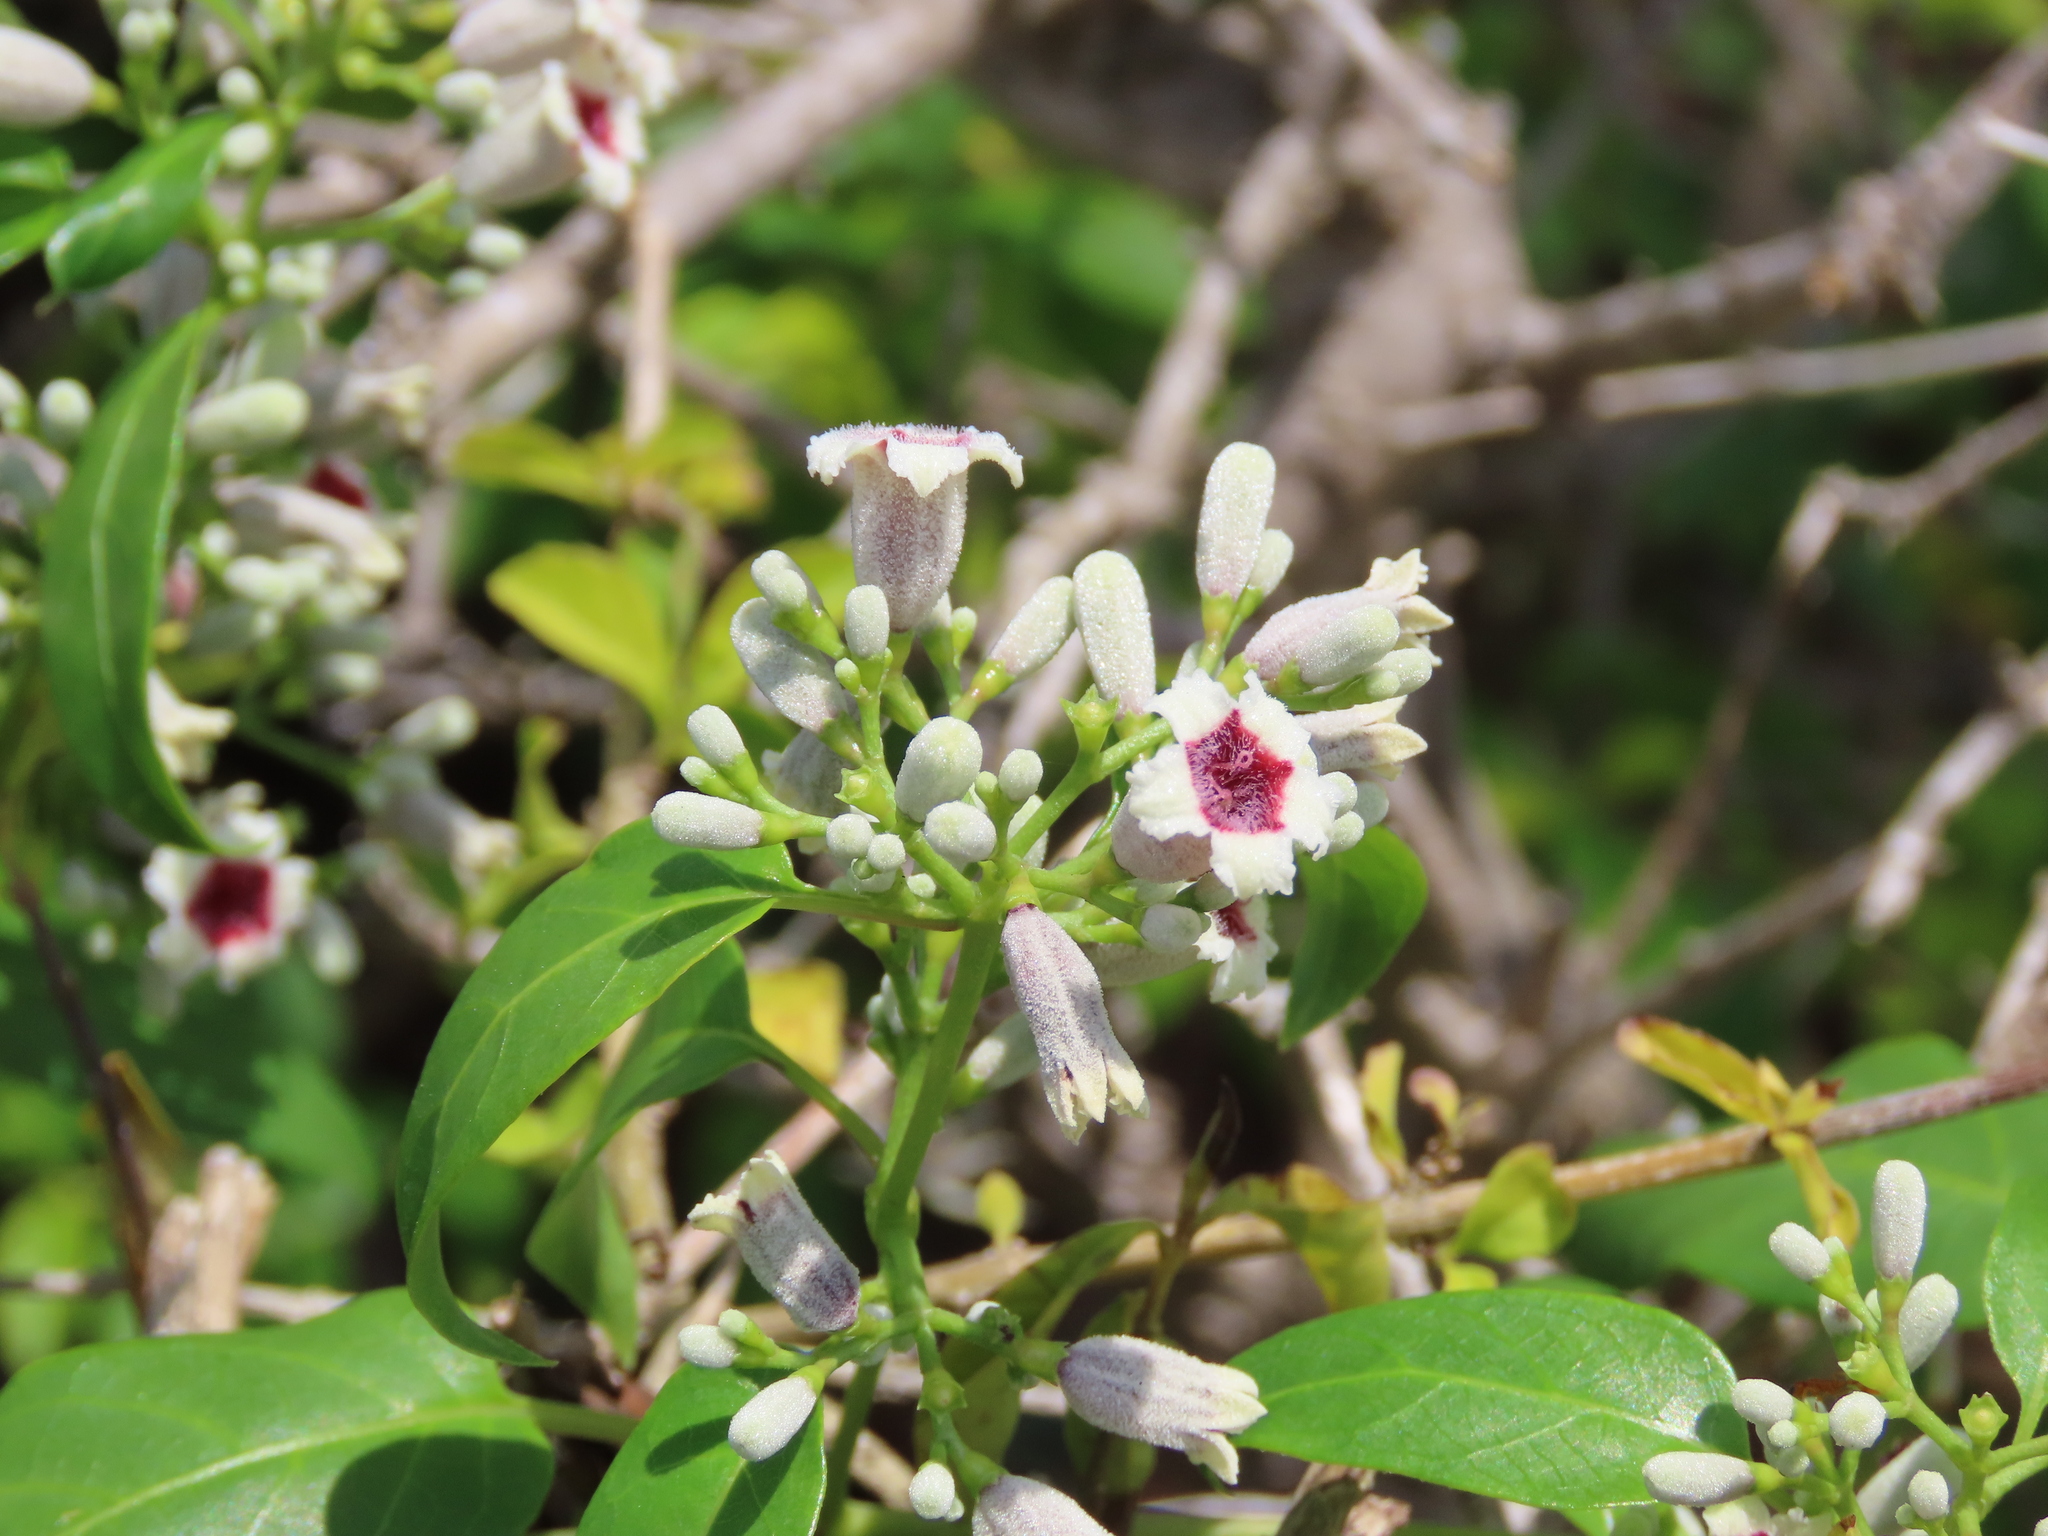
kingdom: Plantae
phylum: Tracheophyta
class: Magnoliopsida
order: Gentianales
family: Rubiaceae
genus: Paederia
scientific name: Paederia foetida
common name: Stinkvine
